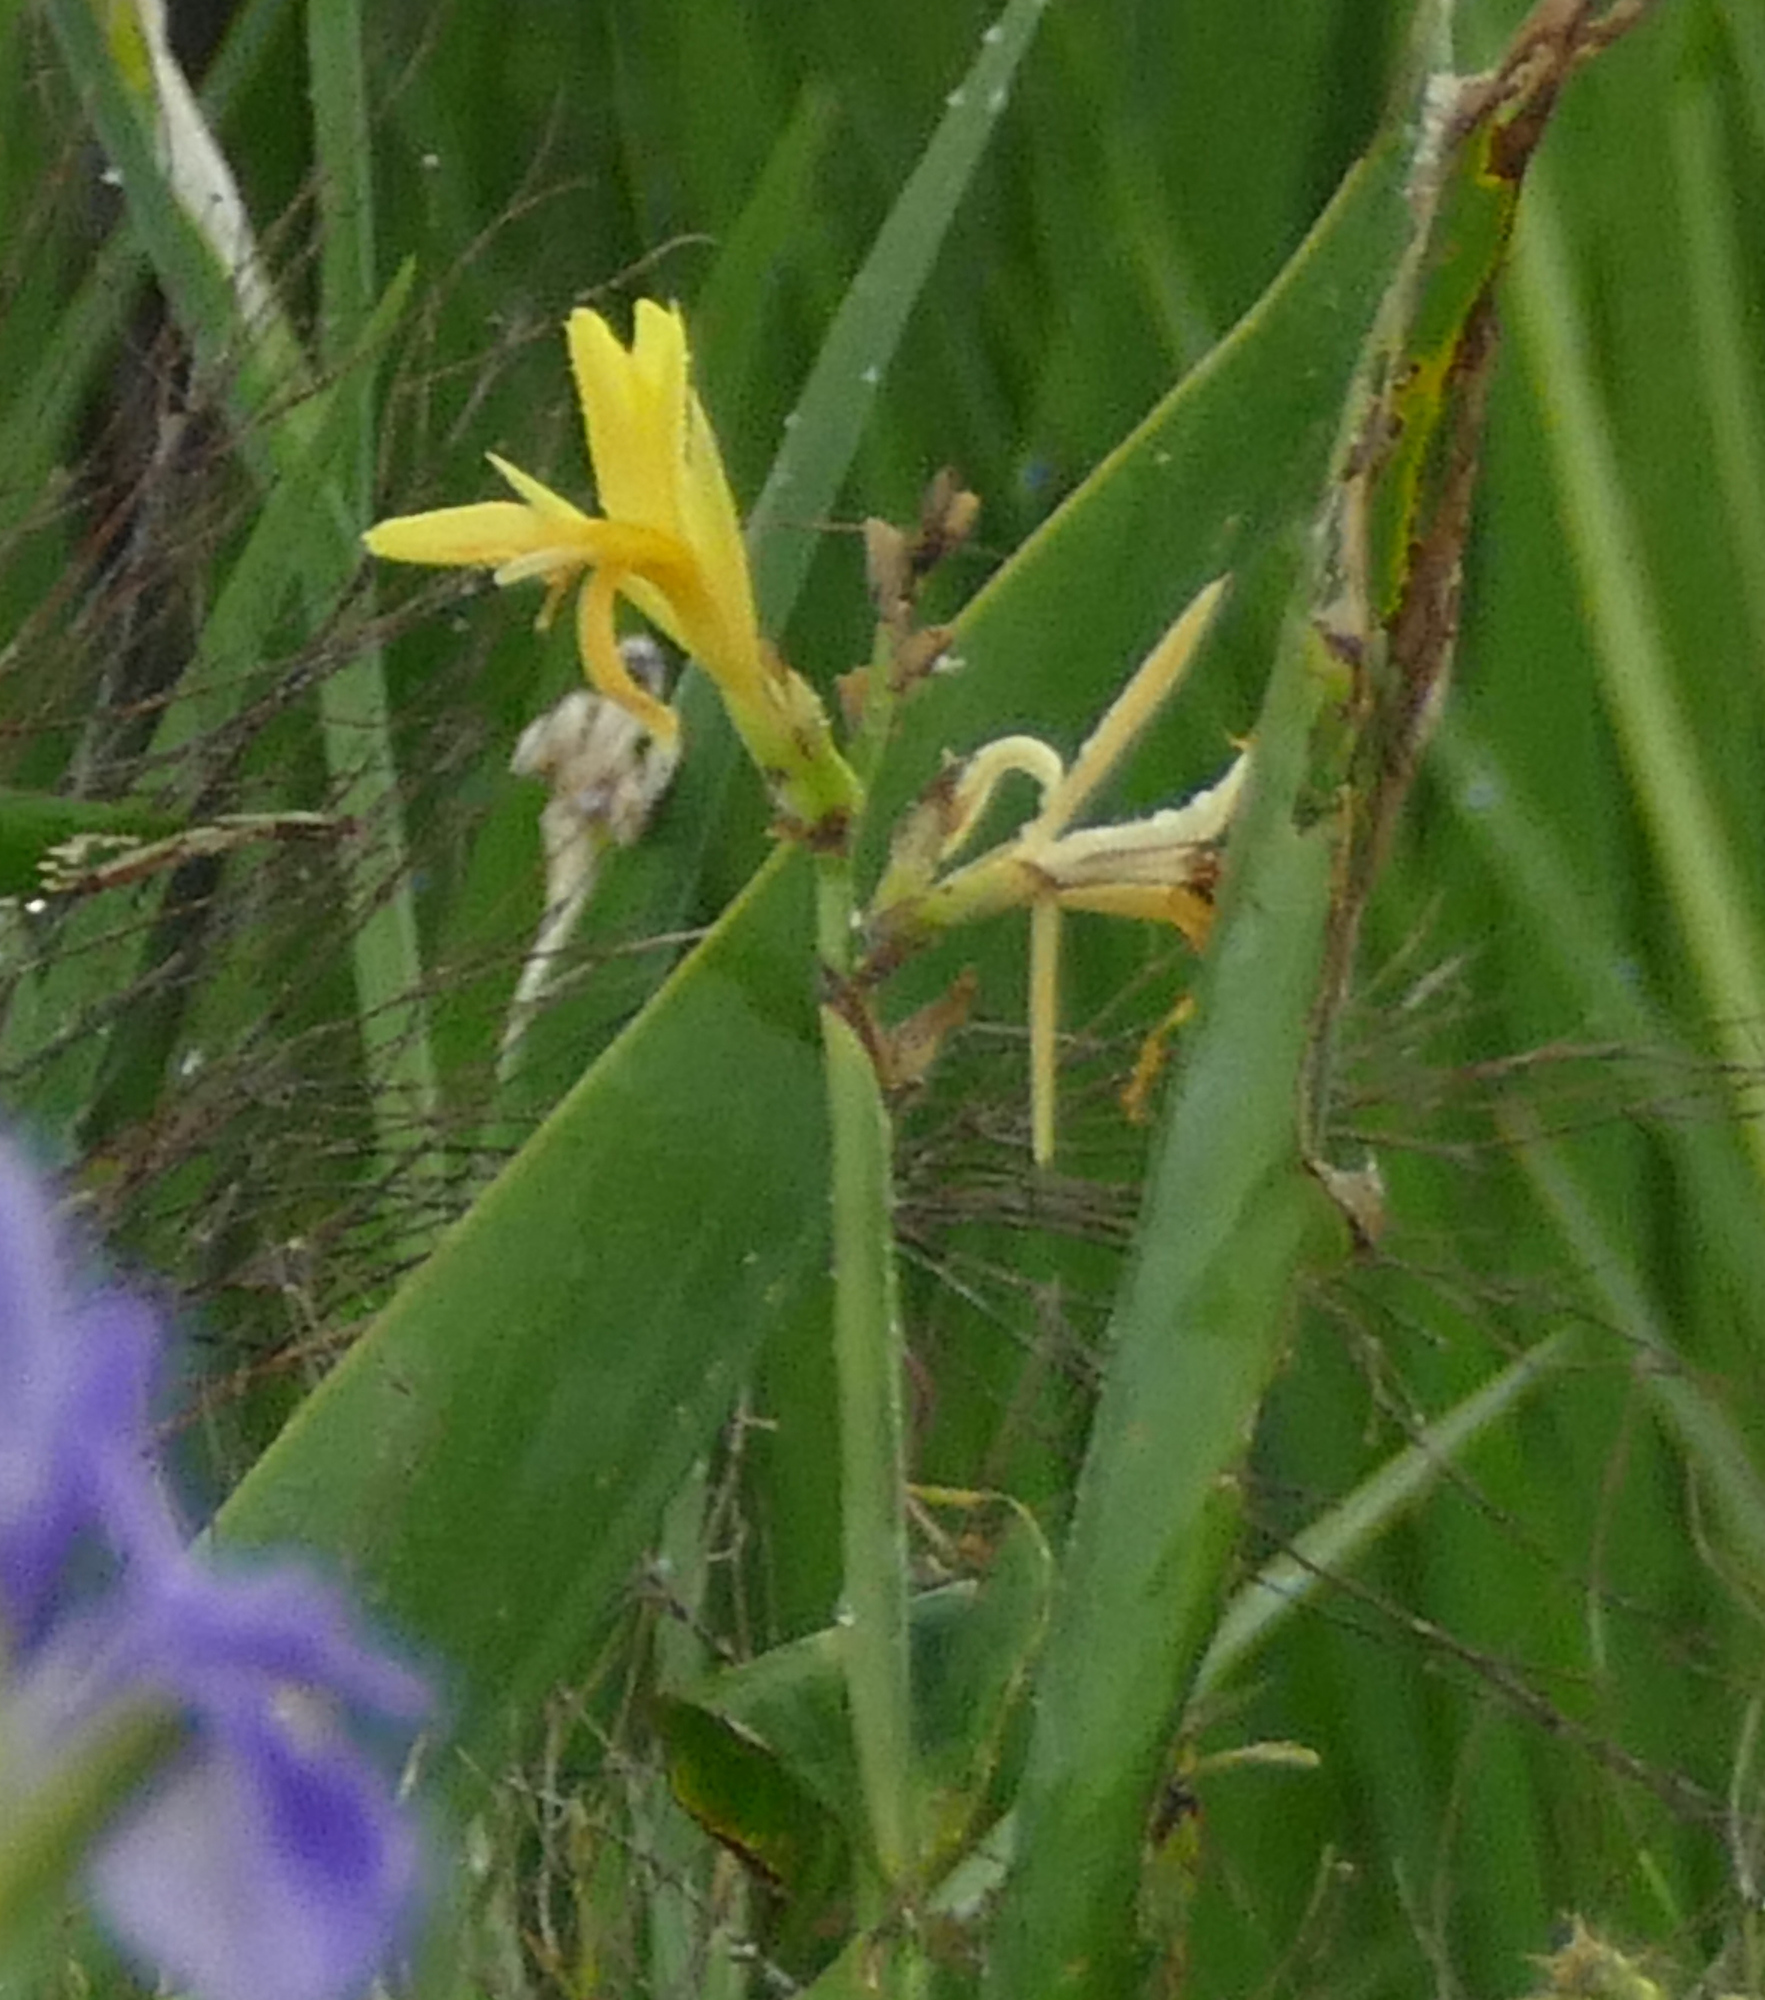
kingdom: Plantae
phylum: Tracheophyta
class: Liliopsida
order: Zingiberales
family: Cannaceae
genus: Canna
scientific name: Canna glauca
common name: Louisiana canna
